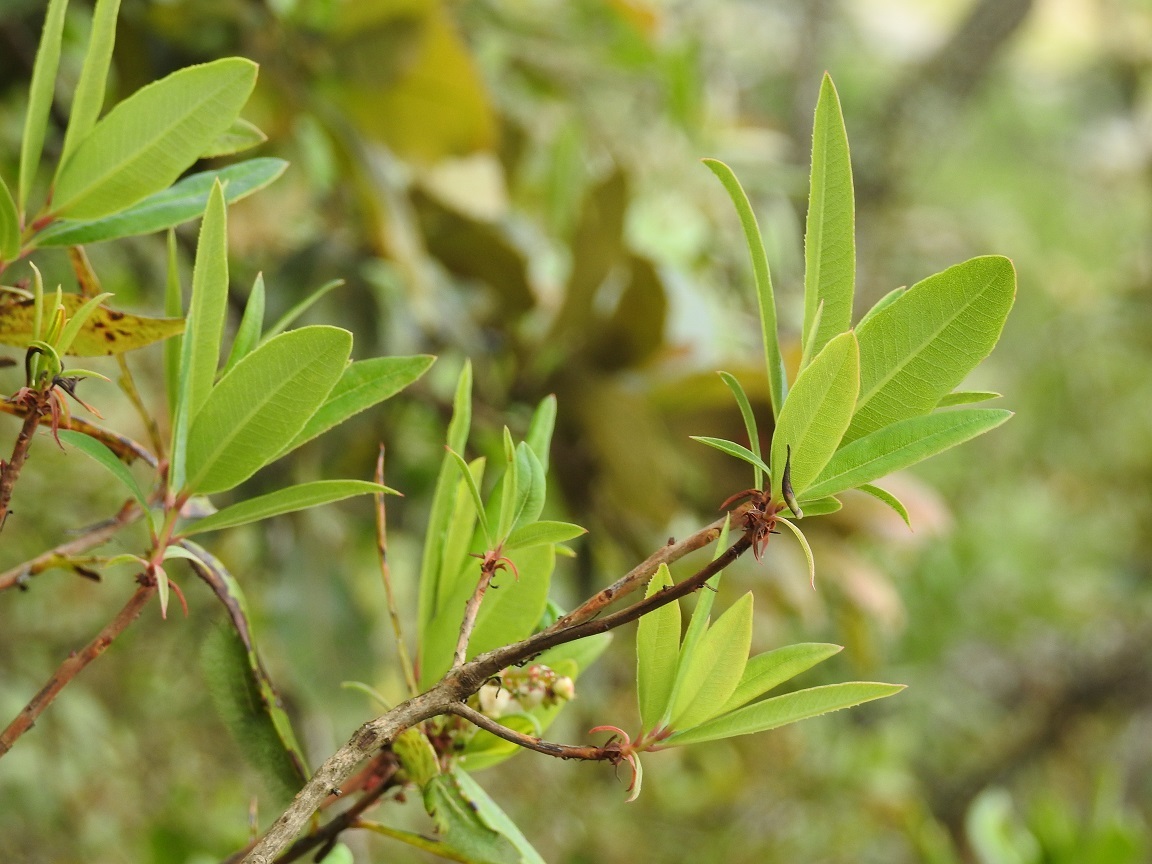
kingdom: Plantae
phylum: Tracheophyta
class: Magnoliopsida
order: Ericales
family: Ericaceae
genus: Comarostaphylis
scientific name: Comarostaphylis discolor
